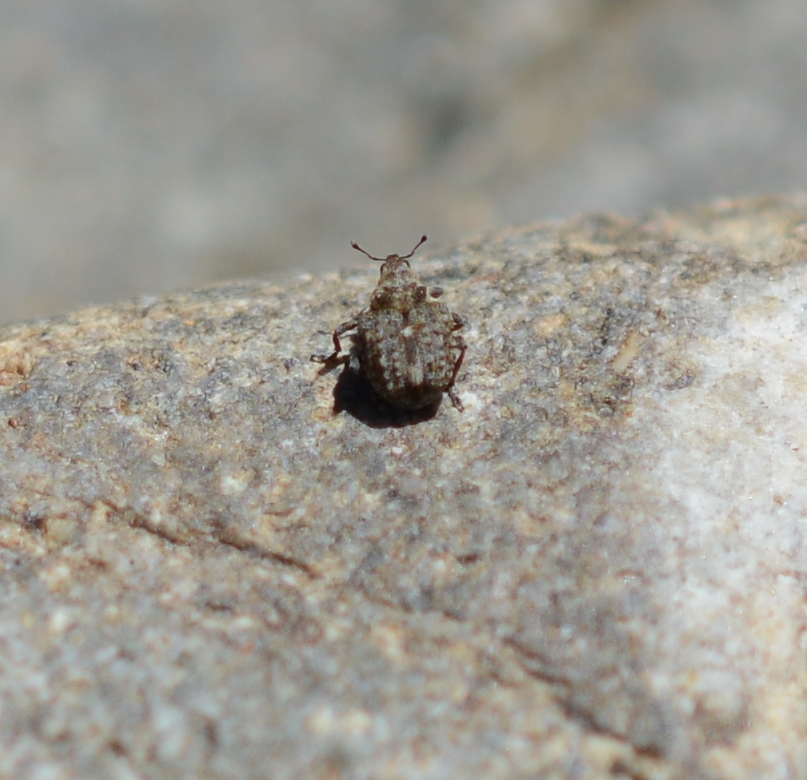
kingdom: Animalia
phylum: Arthropoda
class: Insecta
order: Coleoptera
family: Curculionidae
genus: Neophytobius
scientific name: Neophytobius cavifrons
